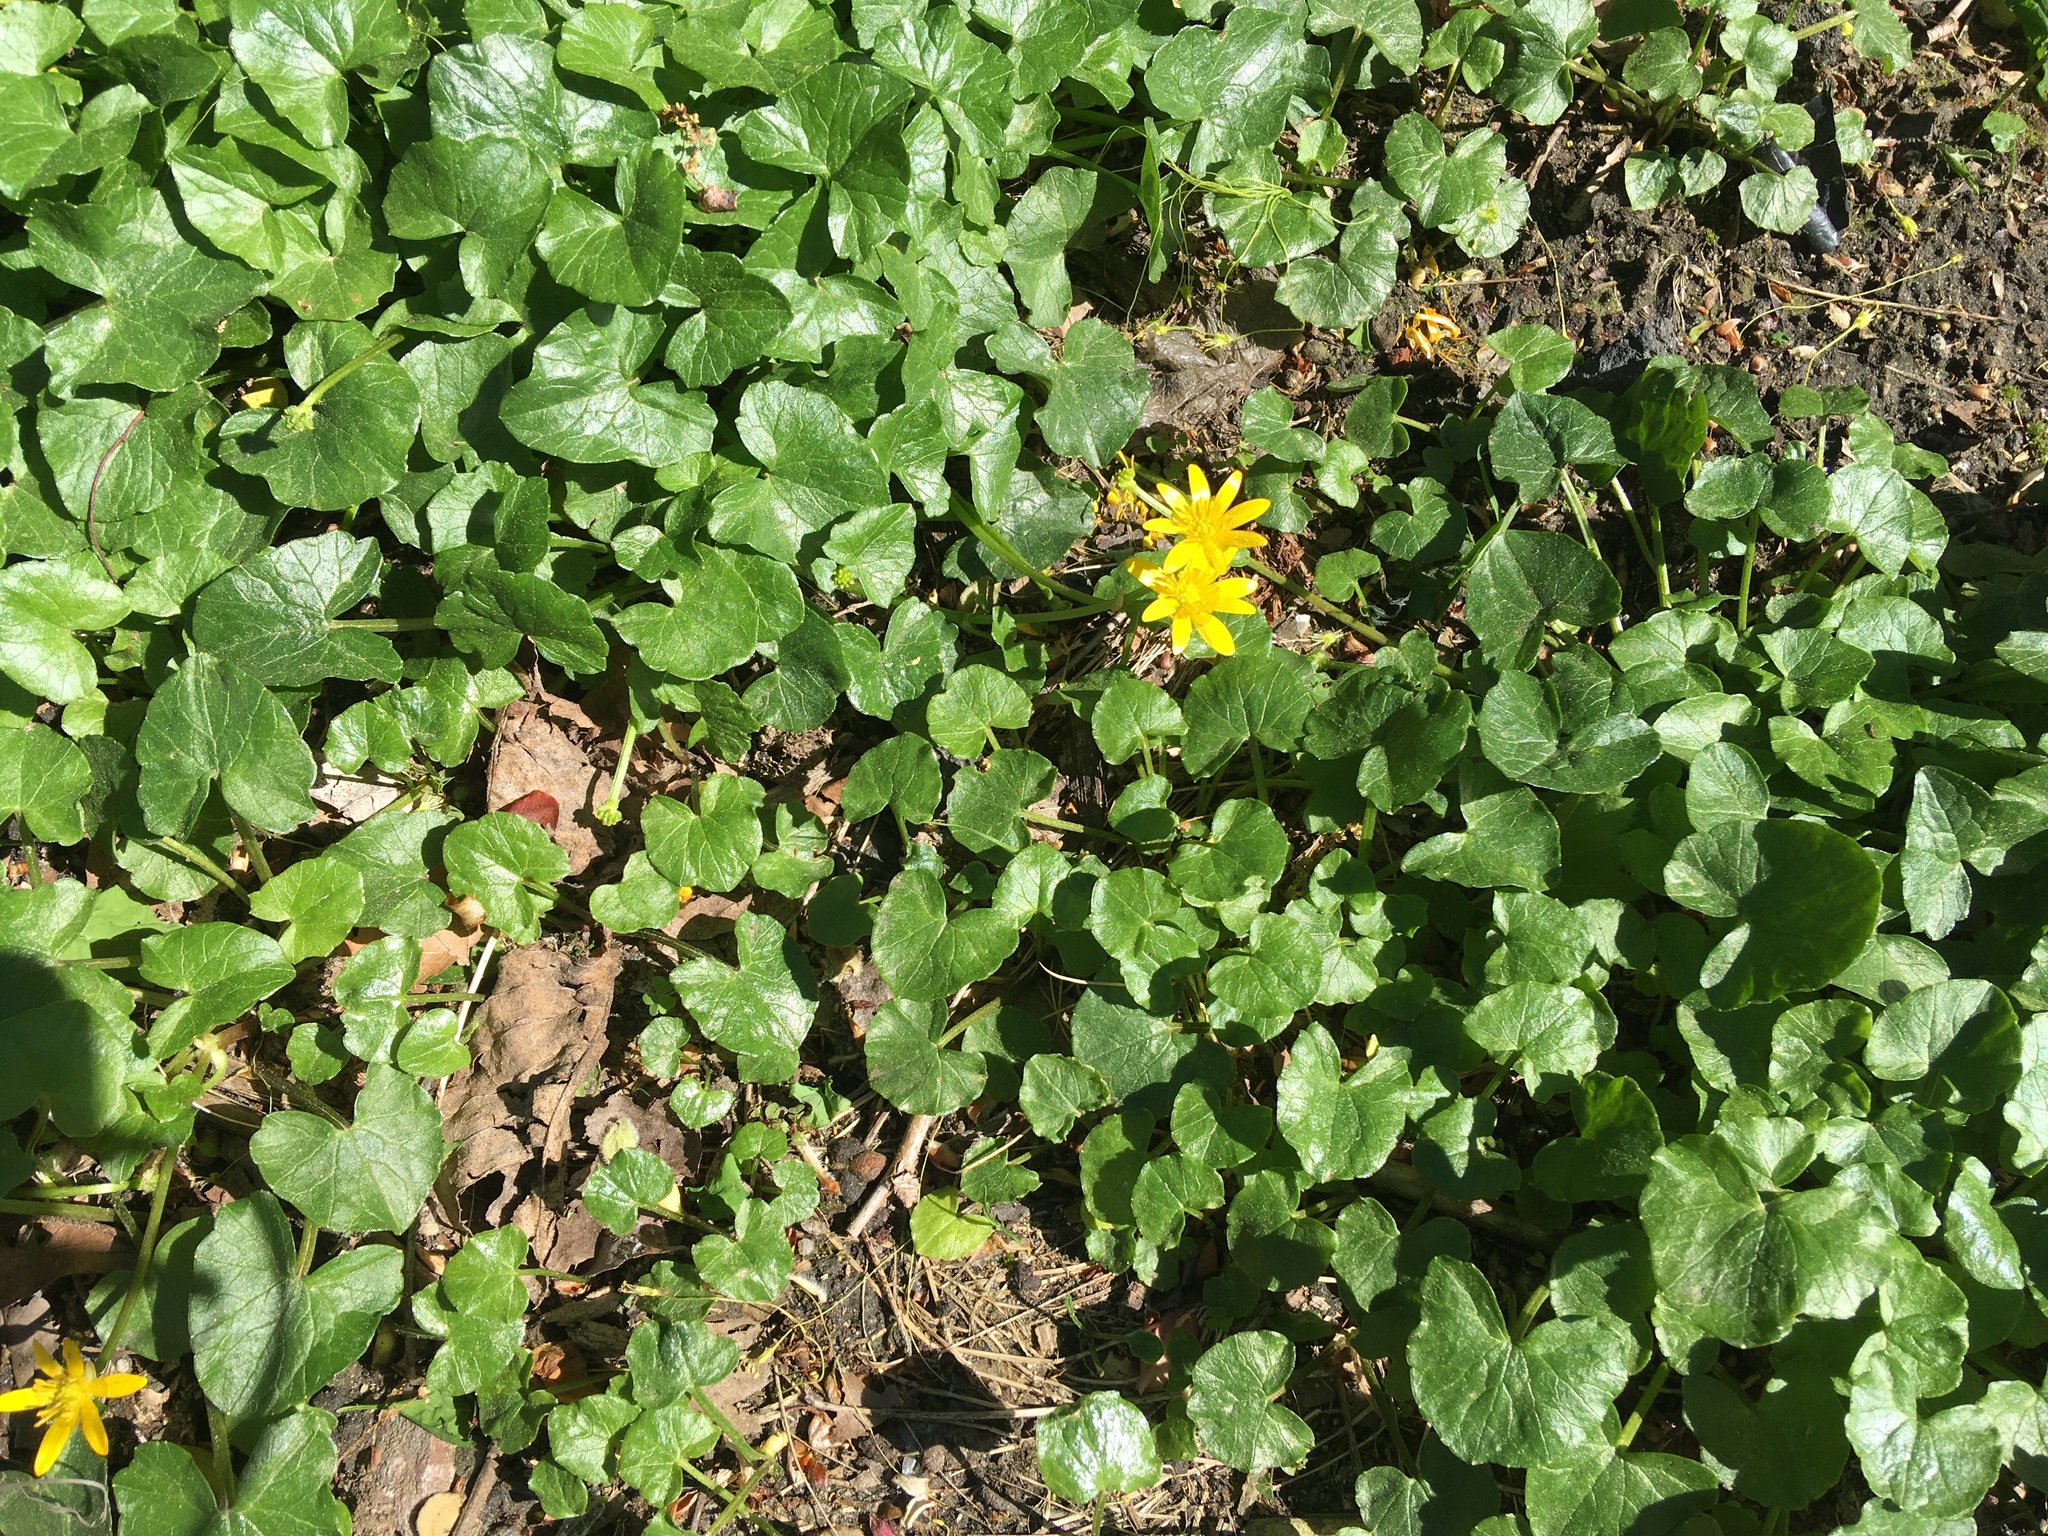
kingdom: Plantae
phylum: Tracheophyta
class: Magnoliopsida
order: Ranunculales
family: Ranunculaceae
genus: Ficaria
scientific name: Ficaria verna
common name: Lesser celandine
